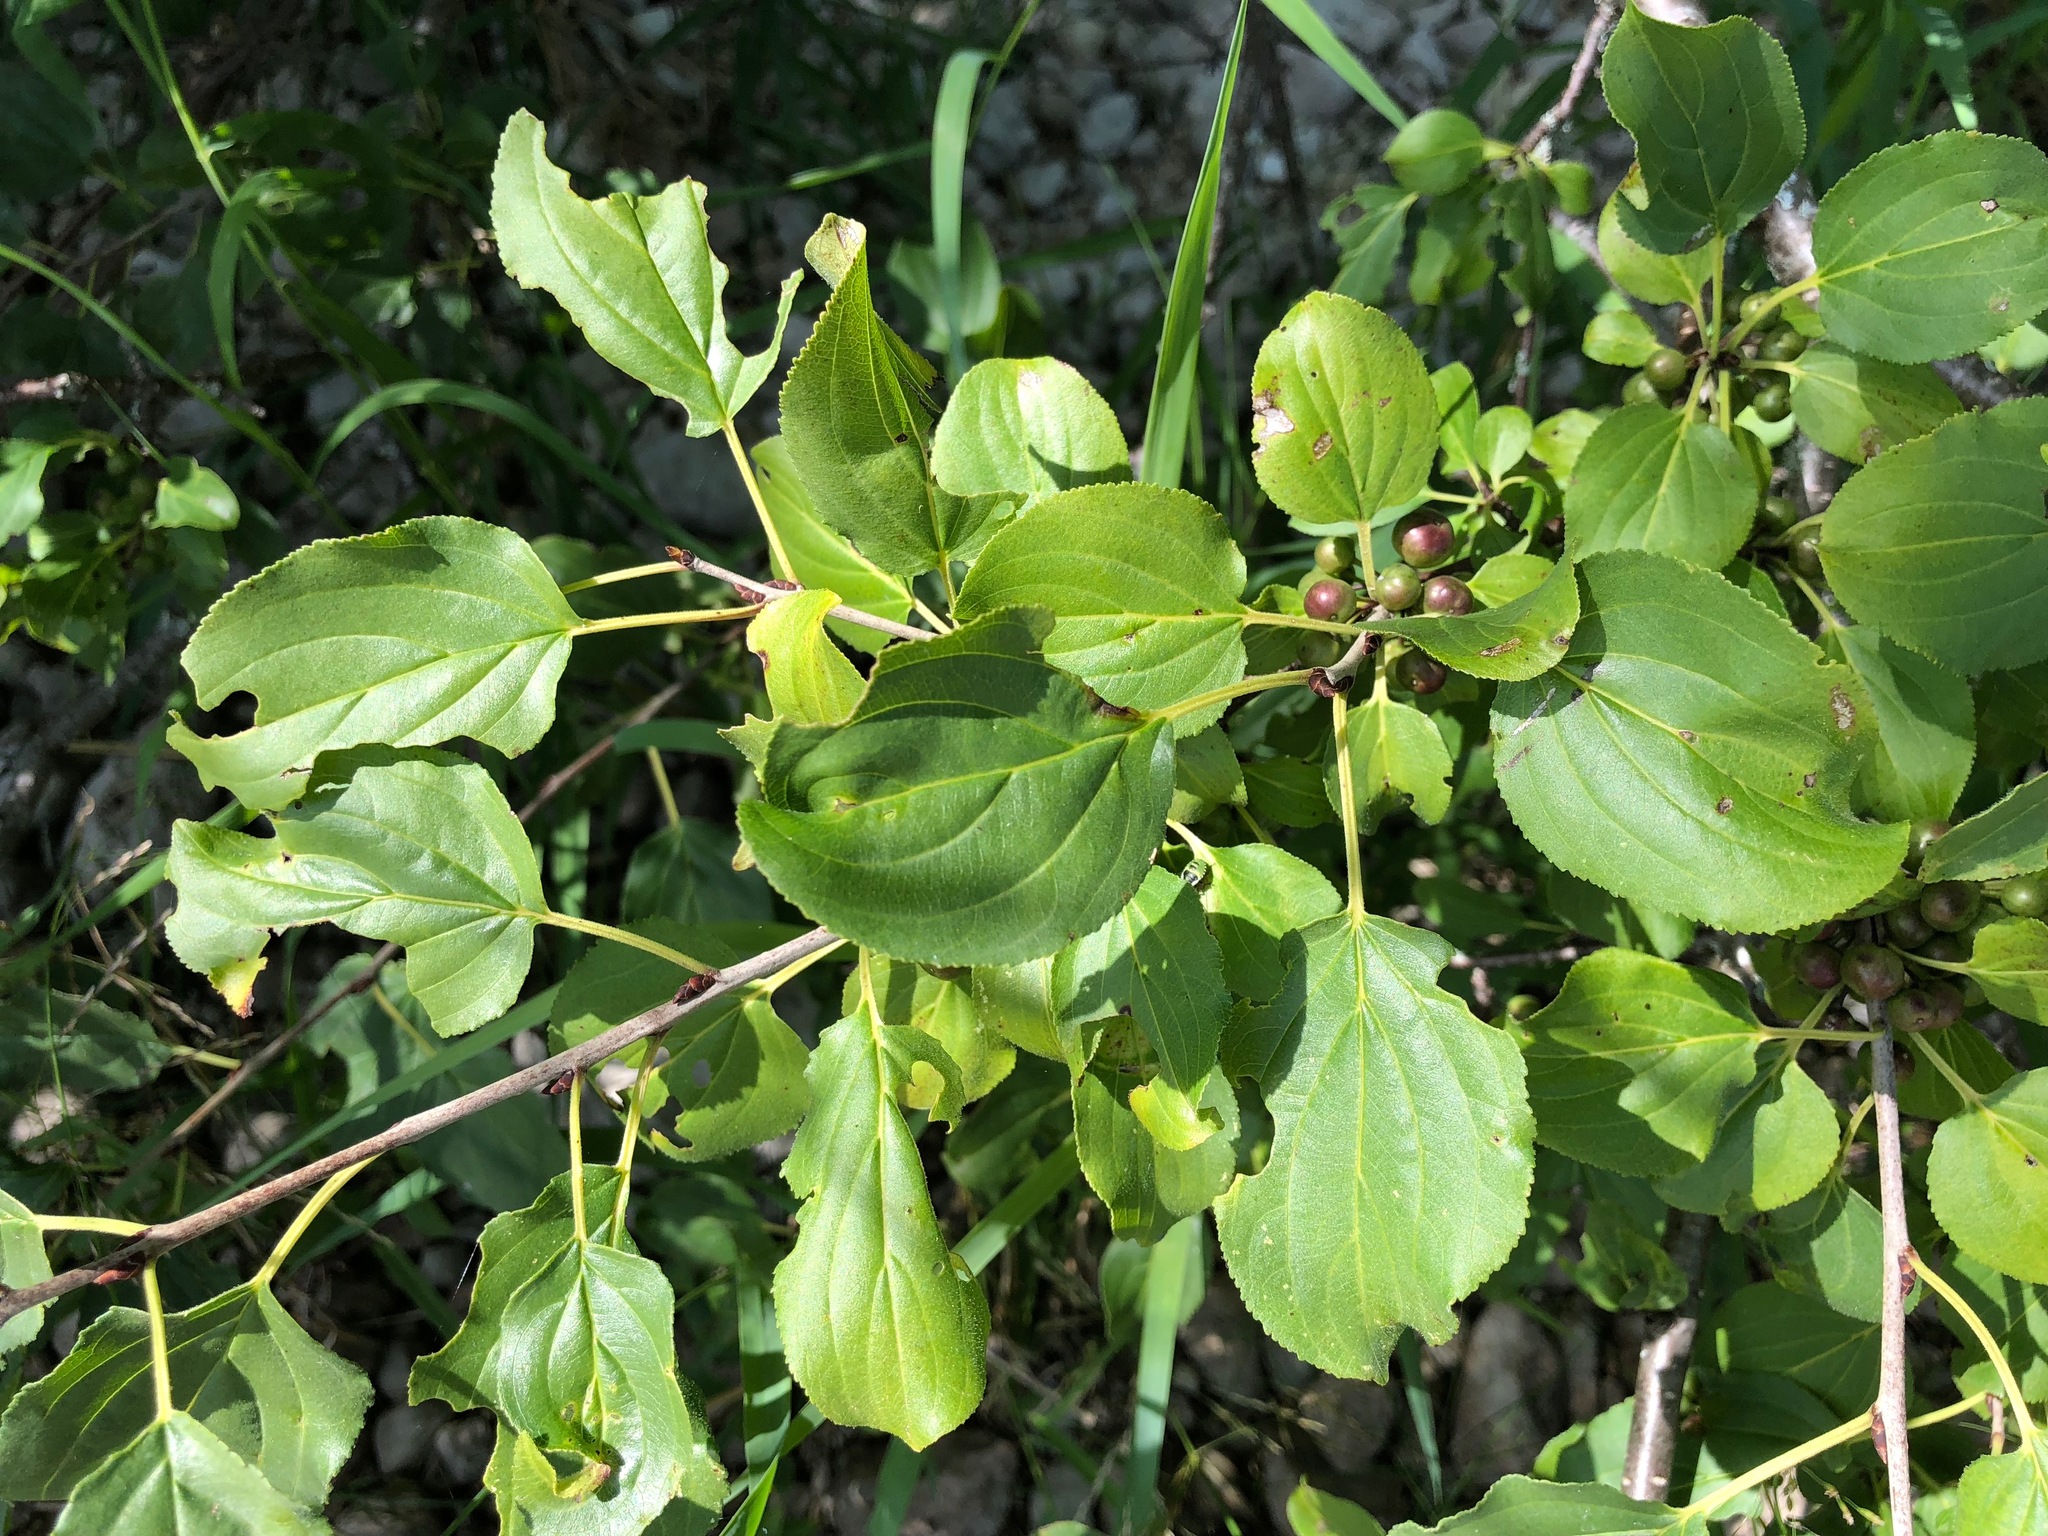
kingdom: Plantae
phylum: Tracheophyta
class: Magnoliopsida
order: Rosales
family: Rhamnaceae
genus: Rhamnus
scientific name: Rhamnus cathartica
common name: Common buckthorn
